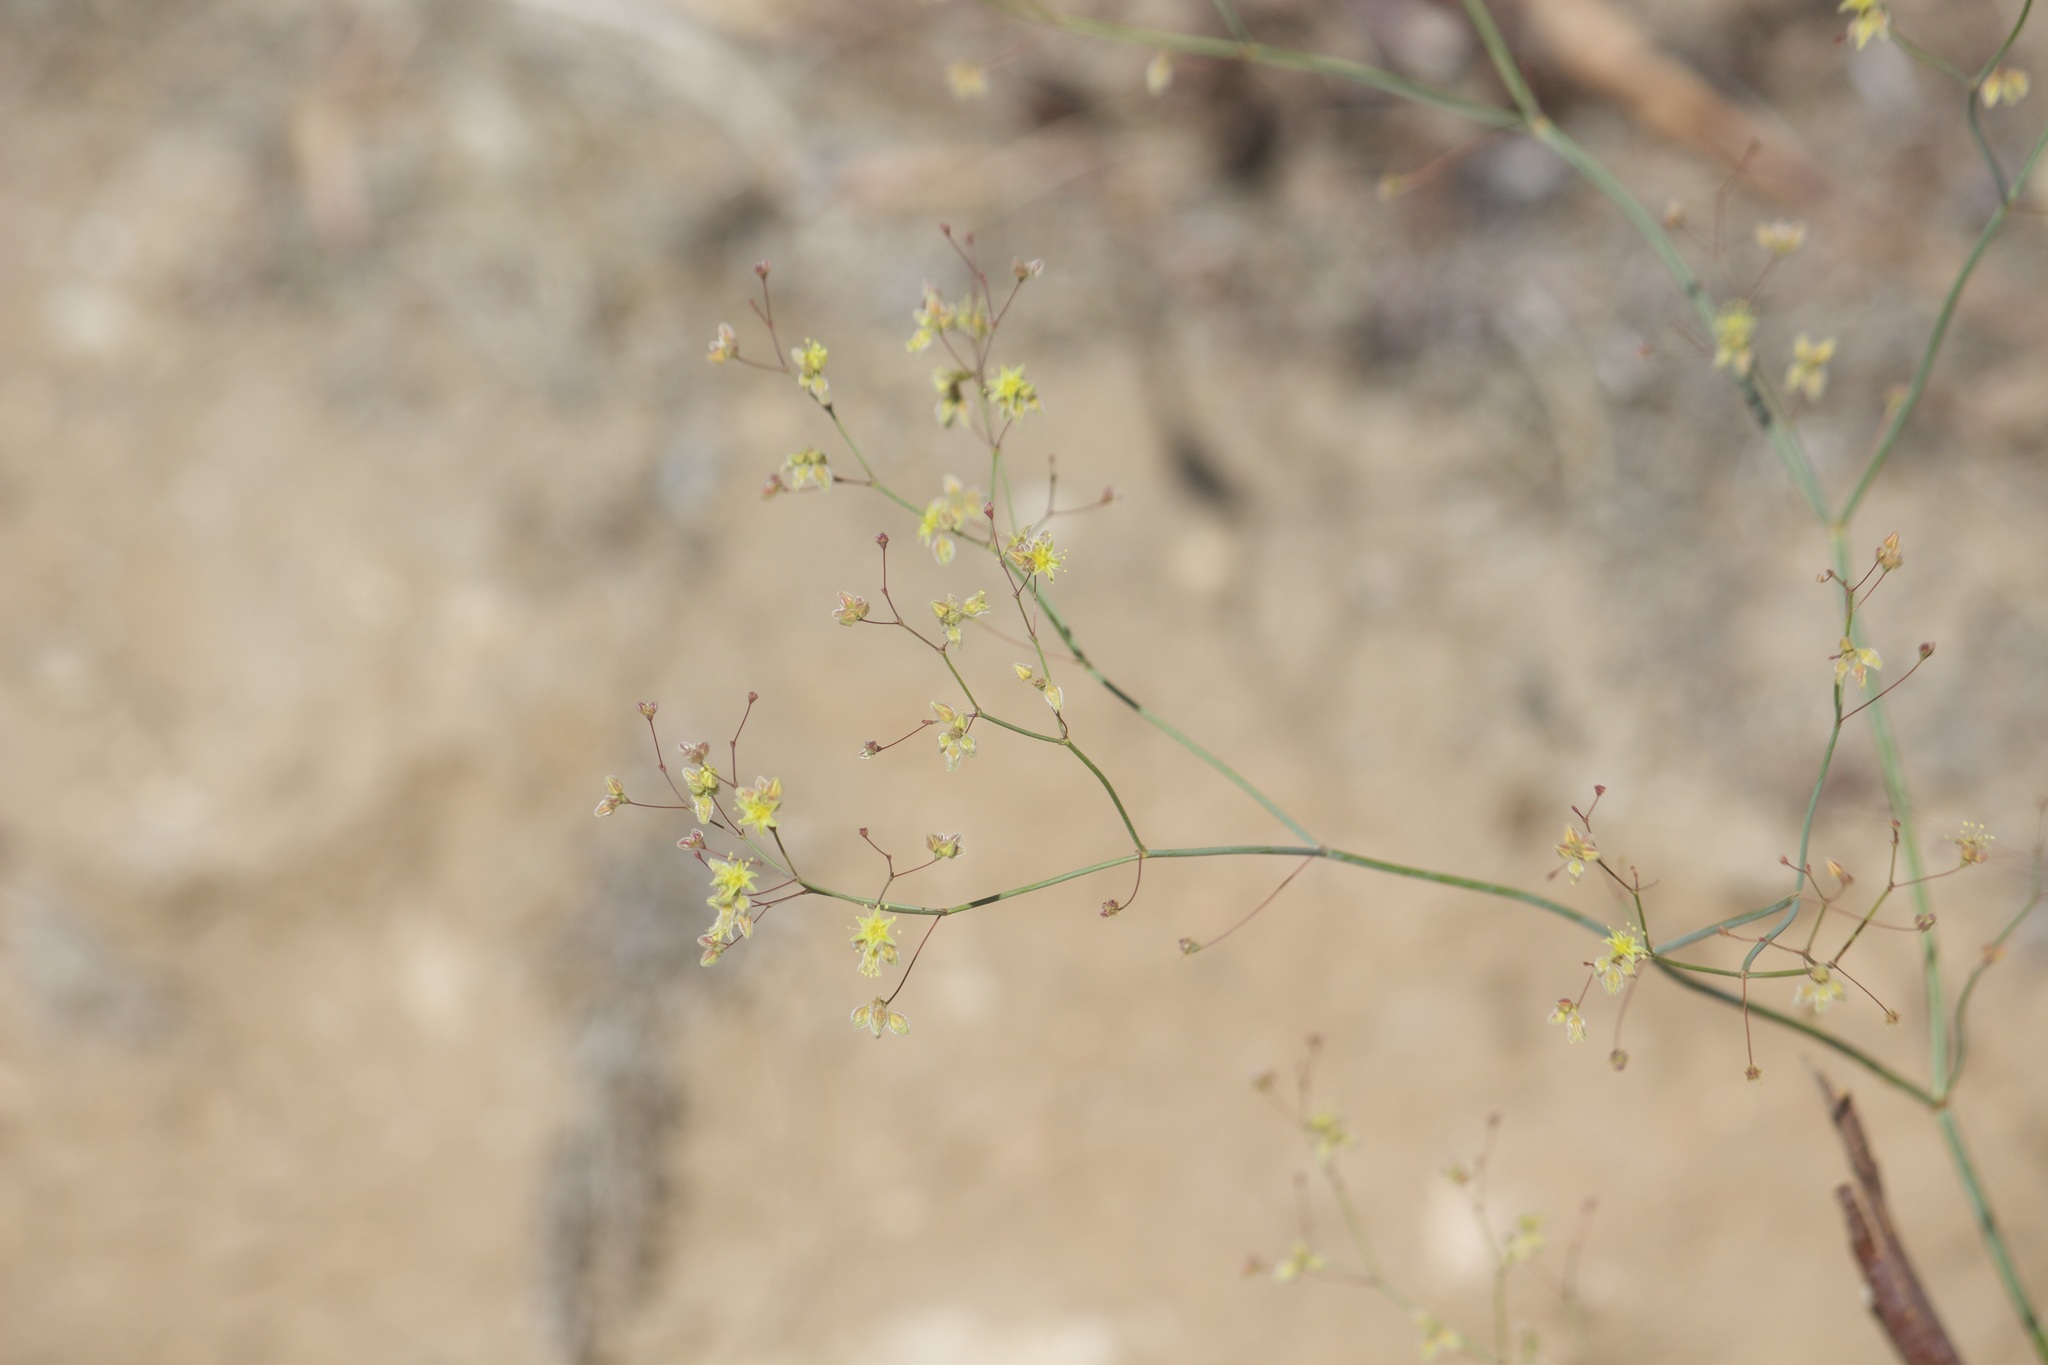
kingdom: Plantae
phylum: Tracheophyta
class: Magnoliopsida
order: Caryophyllales
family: Polygonaceae
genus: Eriogonum
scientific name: Eriogonum inflatum
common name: Desert trumpet
